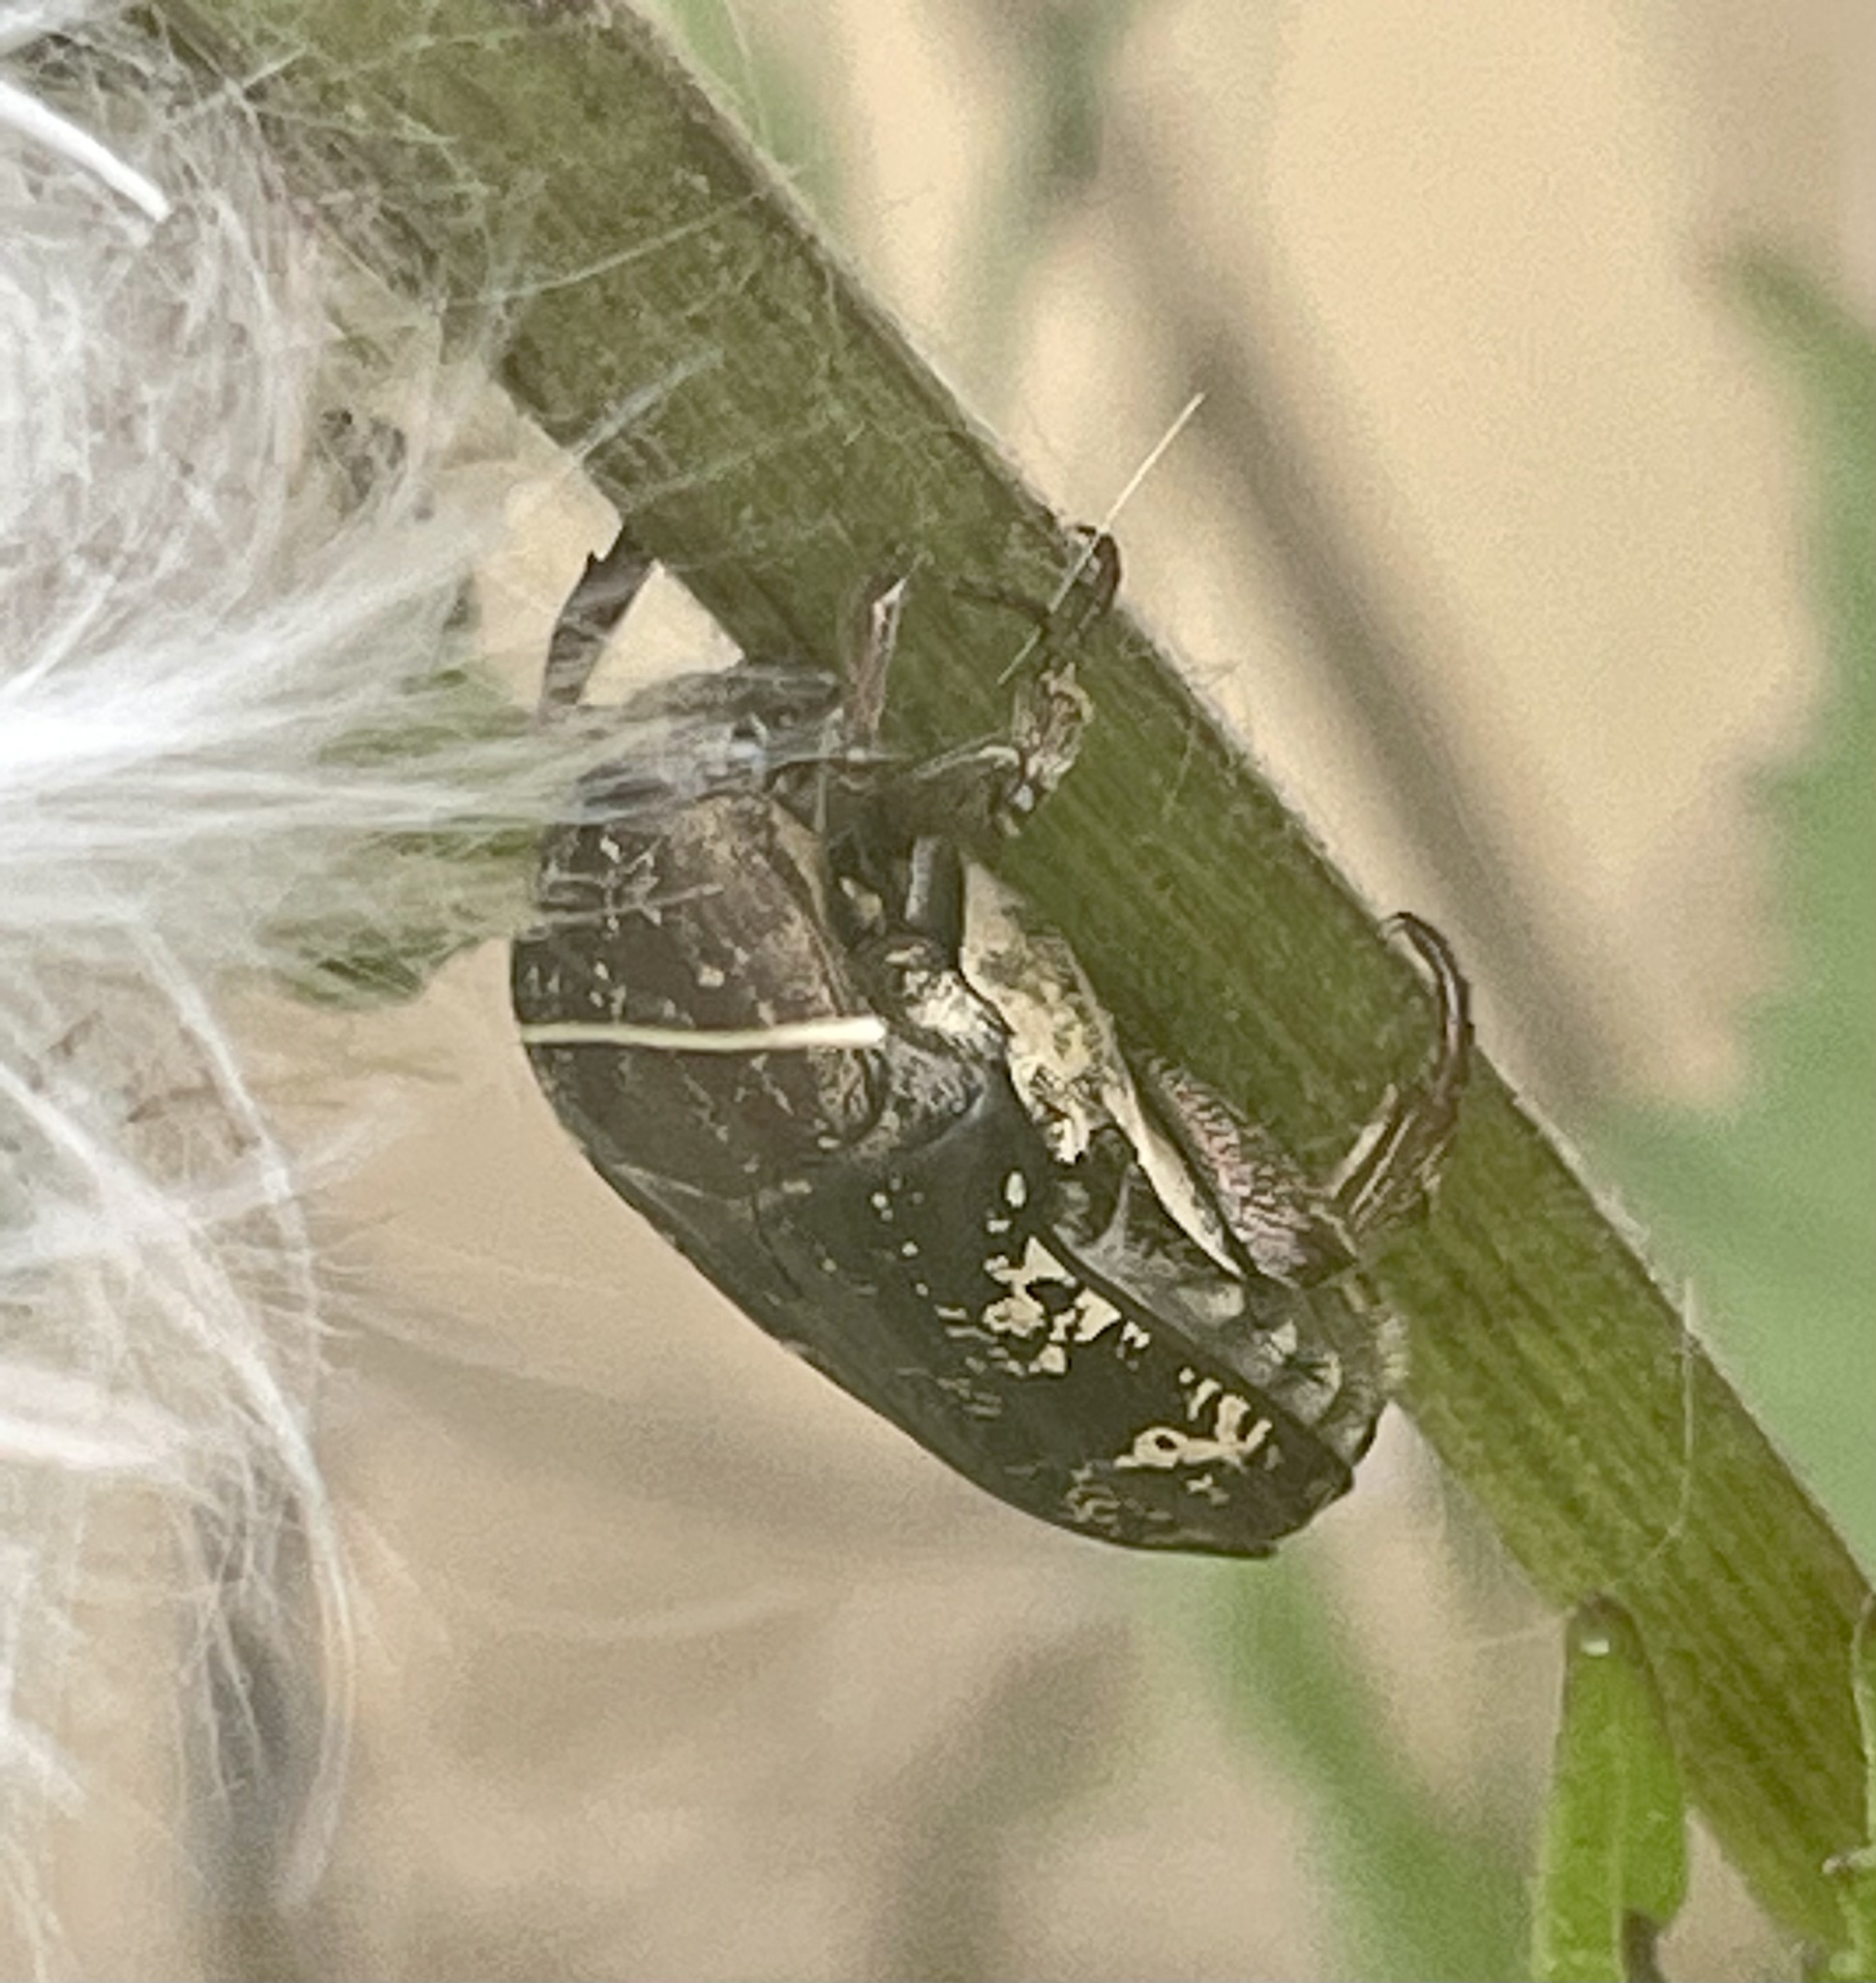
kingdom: Animalia
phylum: Arthropoda
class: Insecta
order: Coleoptera
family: Scarabaeidae
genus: Protaetia
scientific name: Protaetia fusca
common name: Mango flower beetle
